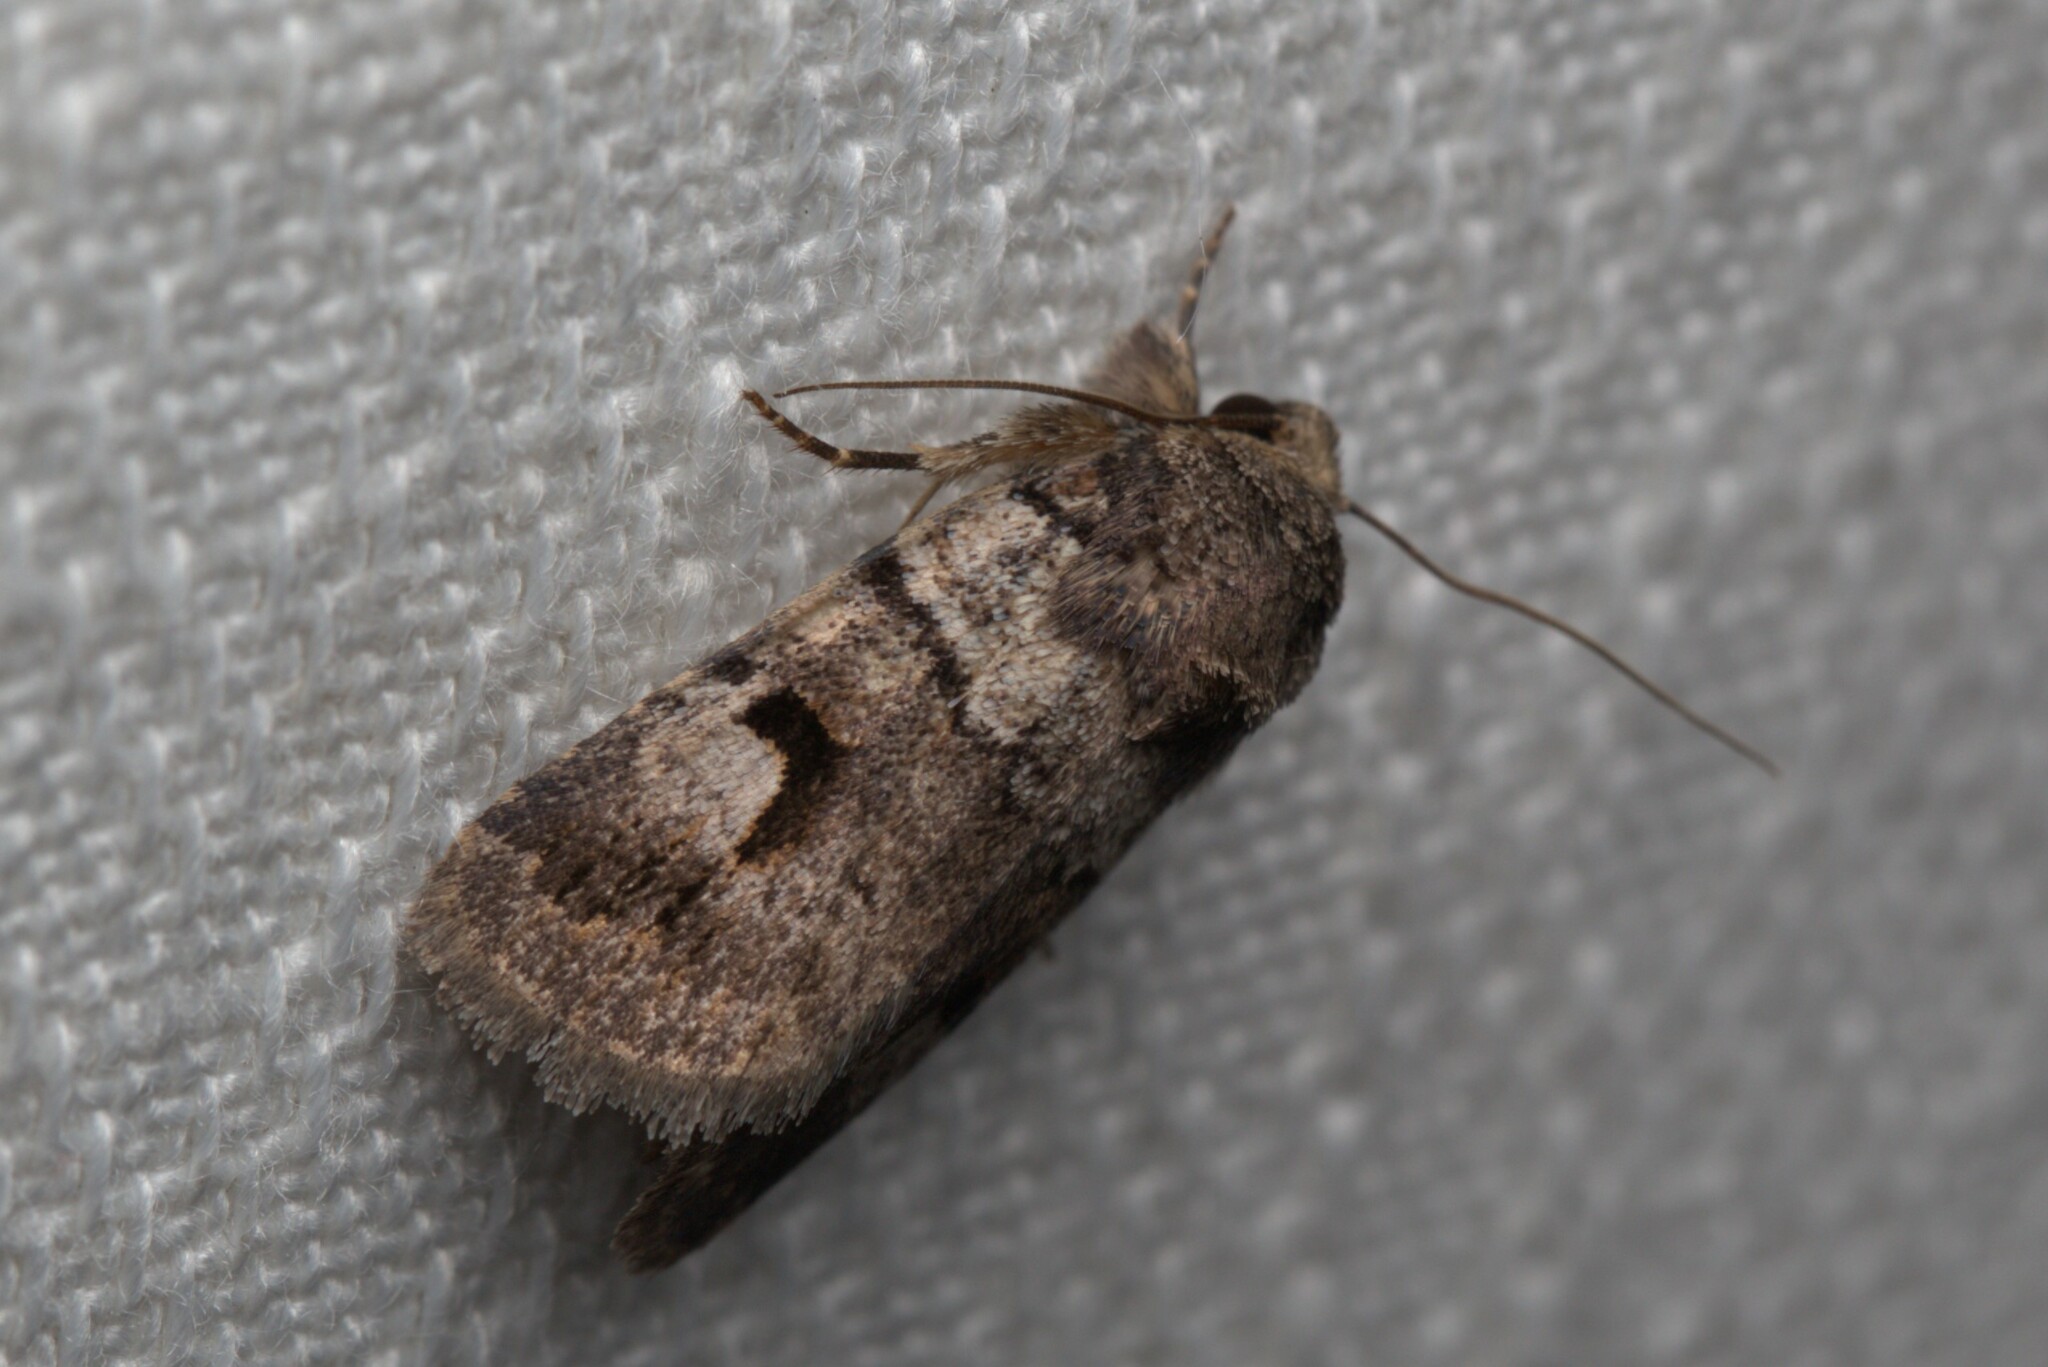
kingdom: Animalia
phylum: Arthropoda
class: Insecta
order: Lepidoptera
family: Noctuidae
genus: Thoracolopha
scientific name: Thoracolopha flexirena
